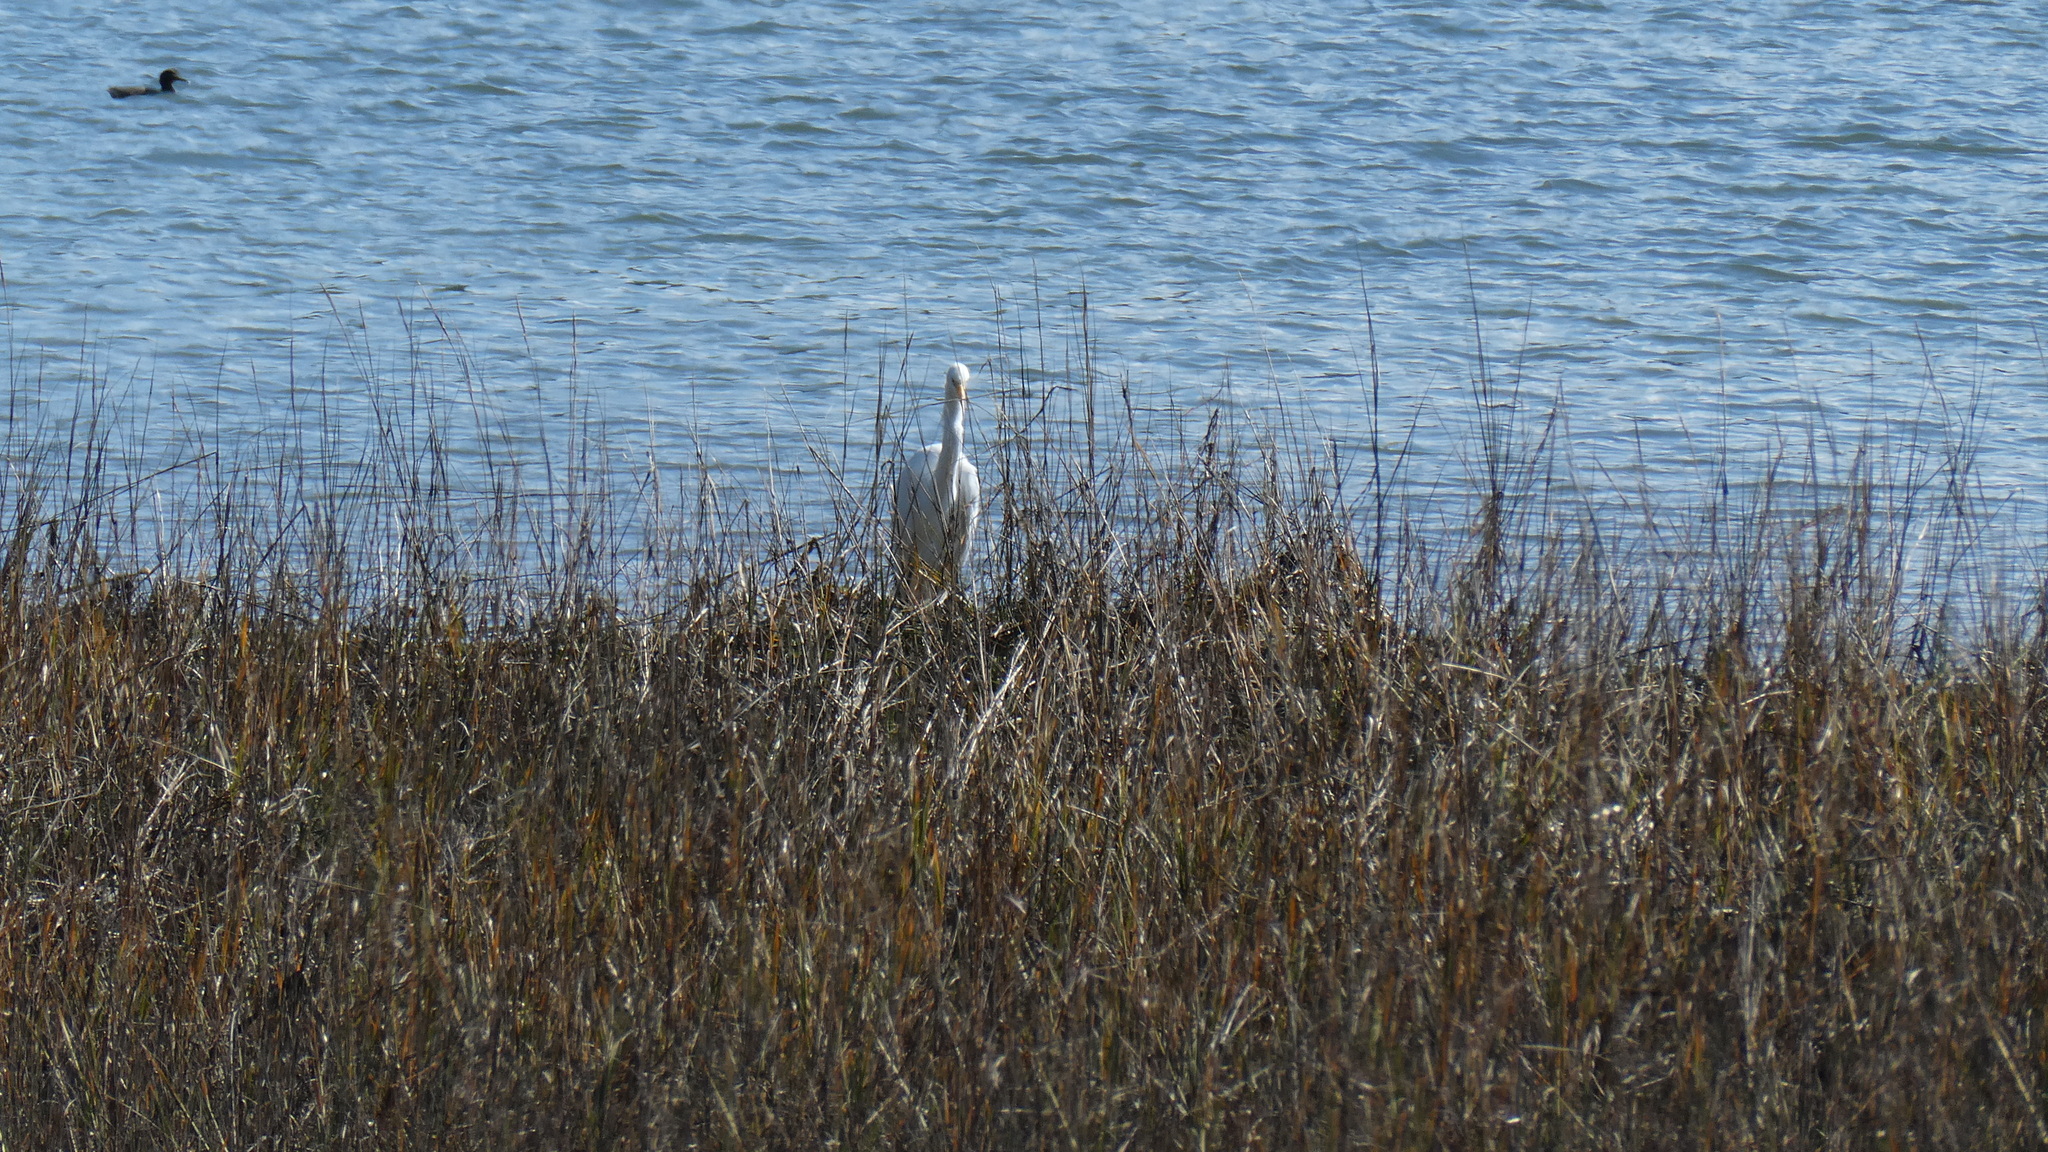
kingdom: Animalia
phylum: Chordata
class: Aves
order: Pelecaniformes
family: Ardeidae
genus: Ardea
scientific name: Ardea alba
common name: Great egret
